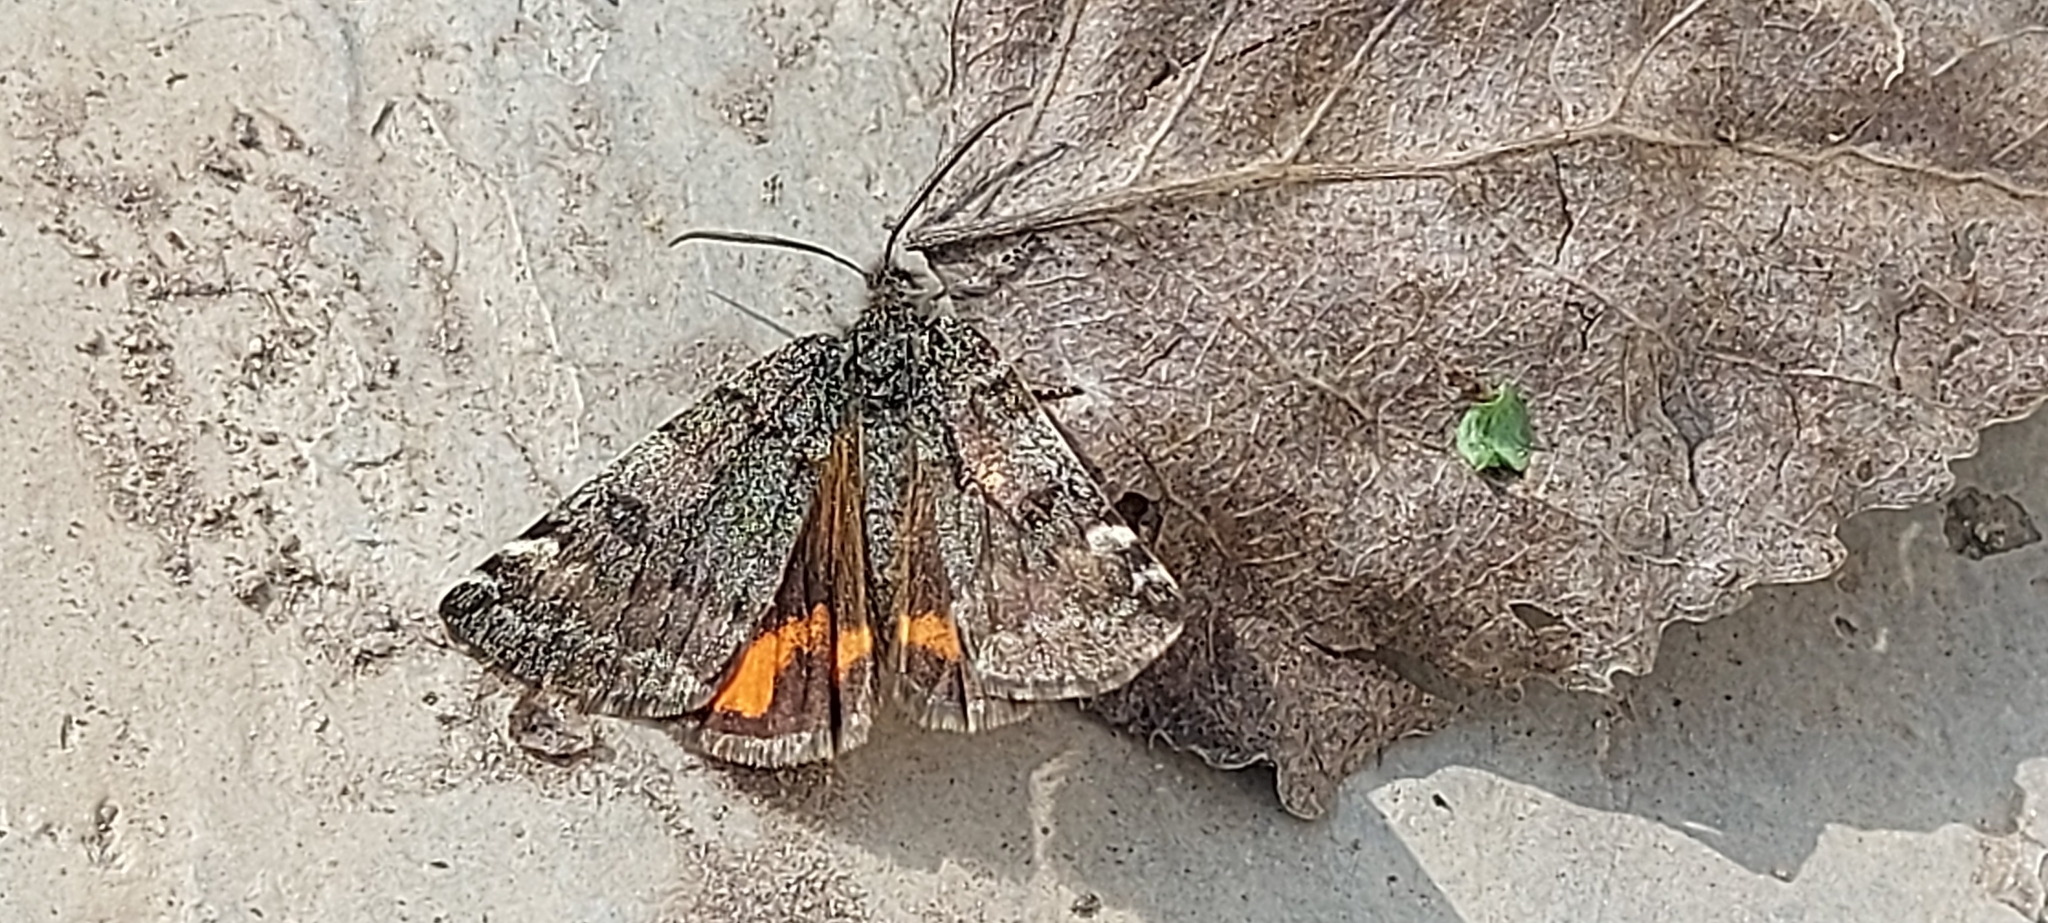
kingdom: Animalia
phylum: Arthropoda
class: Insecta
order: Lepidoptera
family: Geometridae
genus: Archiearis
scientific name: Archiearis notha
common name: Light orange underwing
